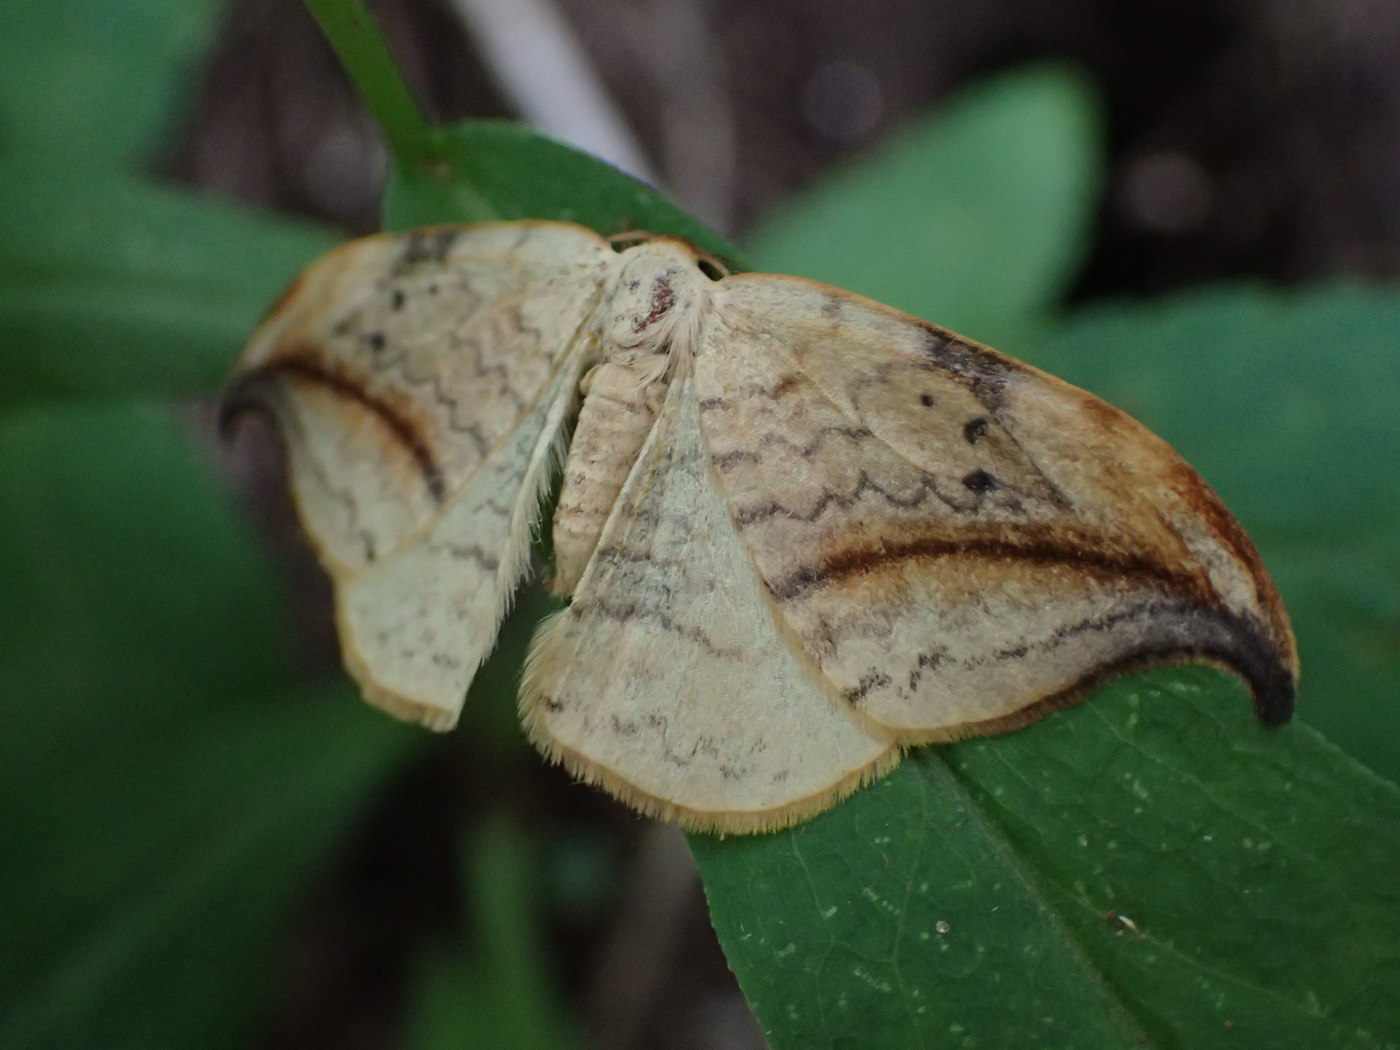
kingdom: Animalia
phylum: Arthropoda
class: Insecta
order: Lepidoptera
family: Drepanidae
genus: Drepana
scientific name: Drepana arcuata
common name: Arched hooktip moth
